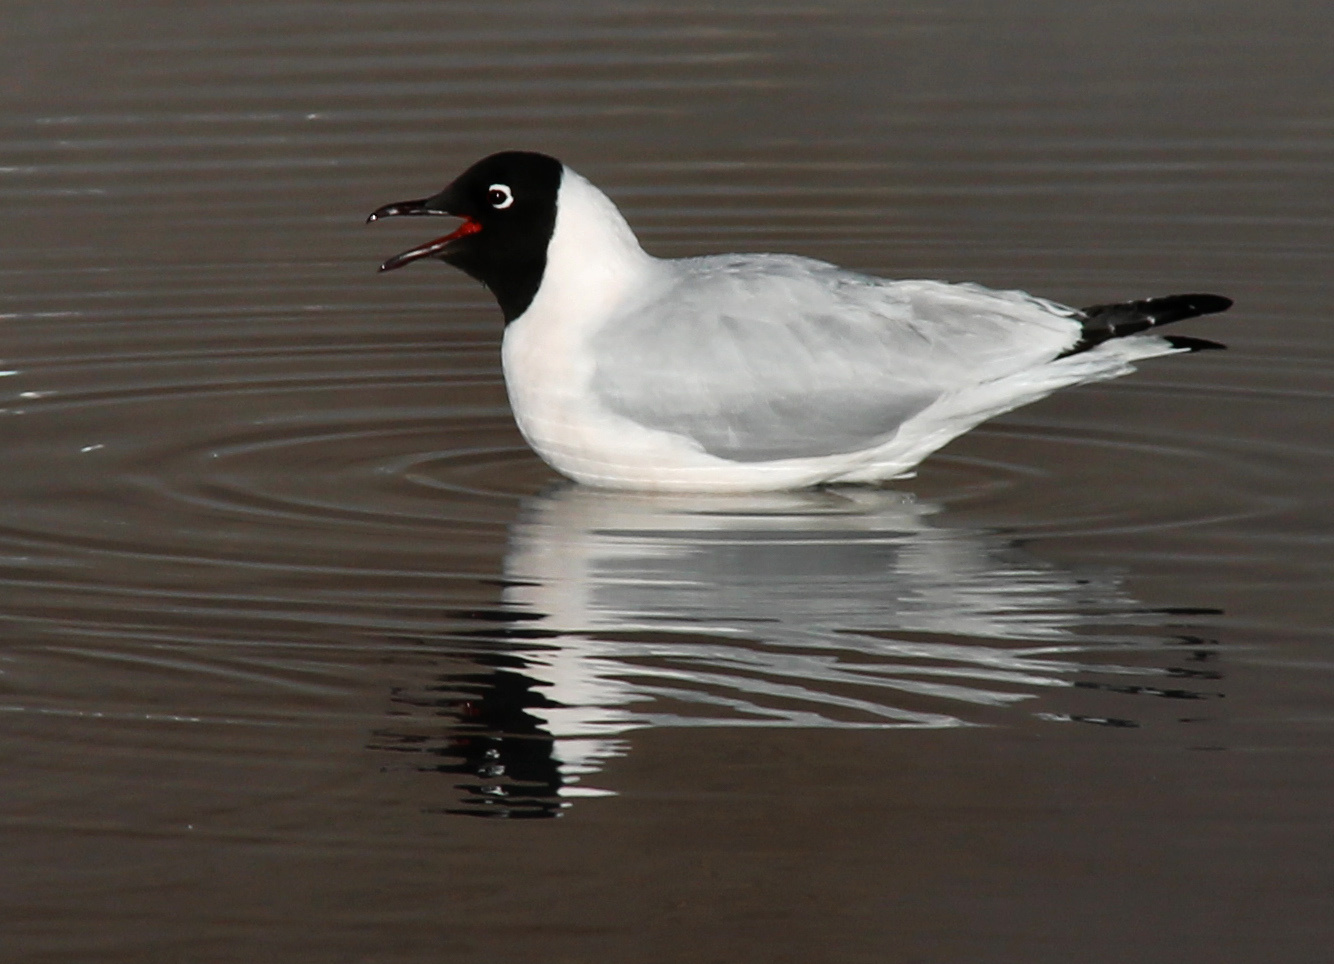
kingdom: Animalia
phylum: Chordata
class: Aves
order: Charadriiformes
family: Laridae
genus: Chroicocephalus
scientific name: Chroicocephalus serranus
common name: Andean gull
